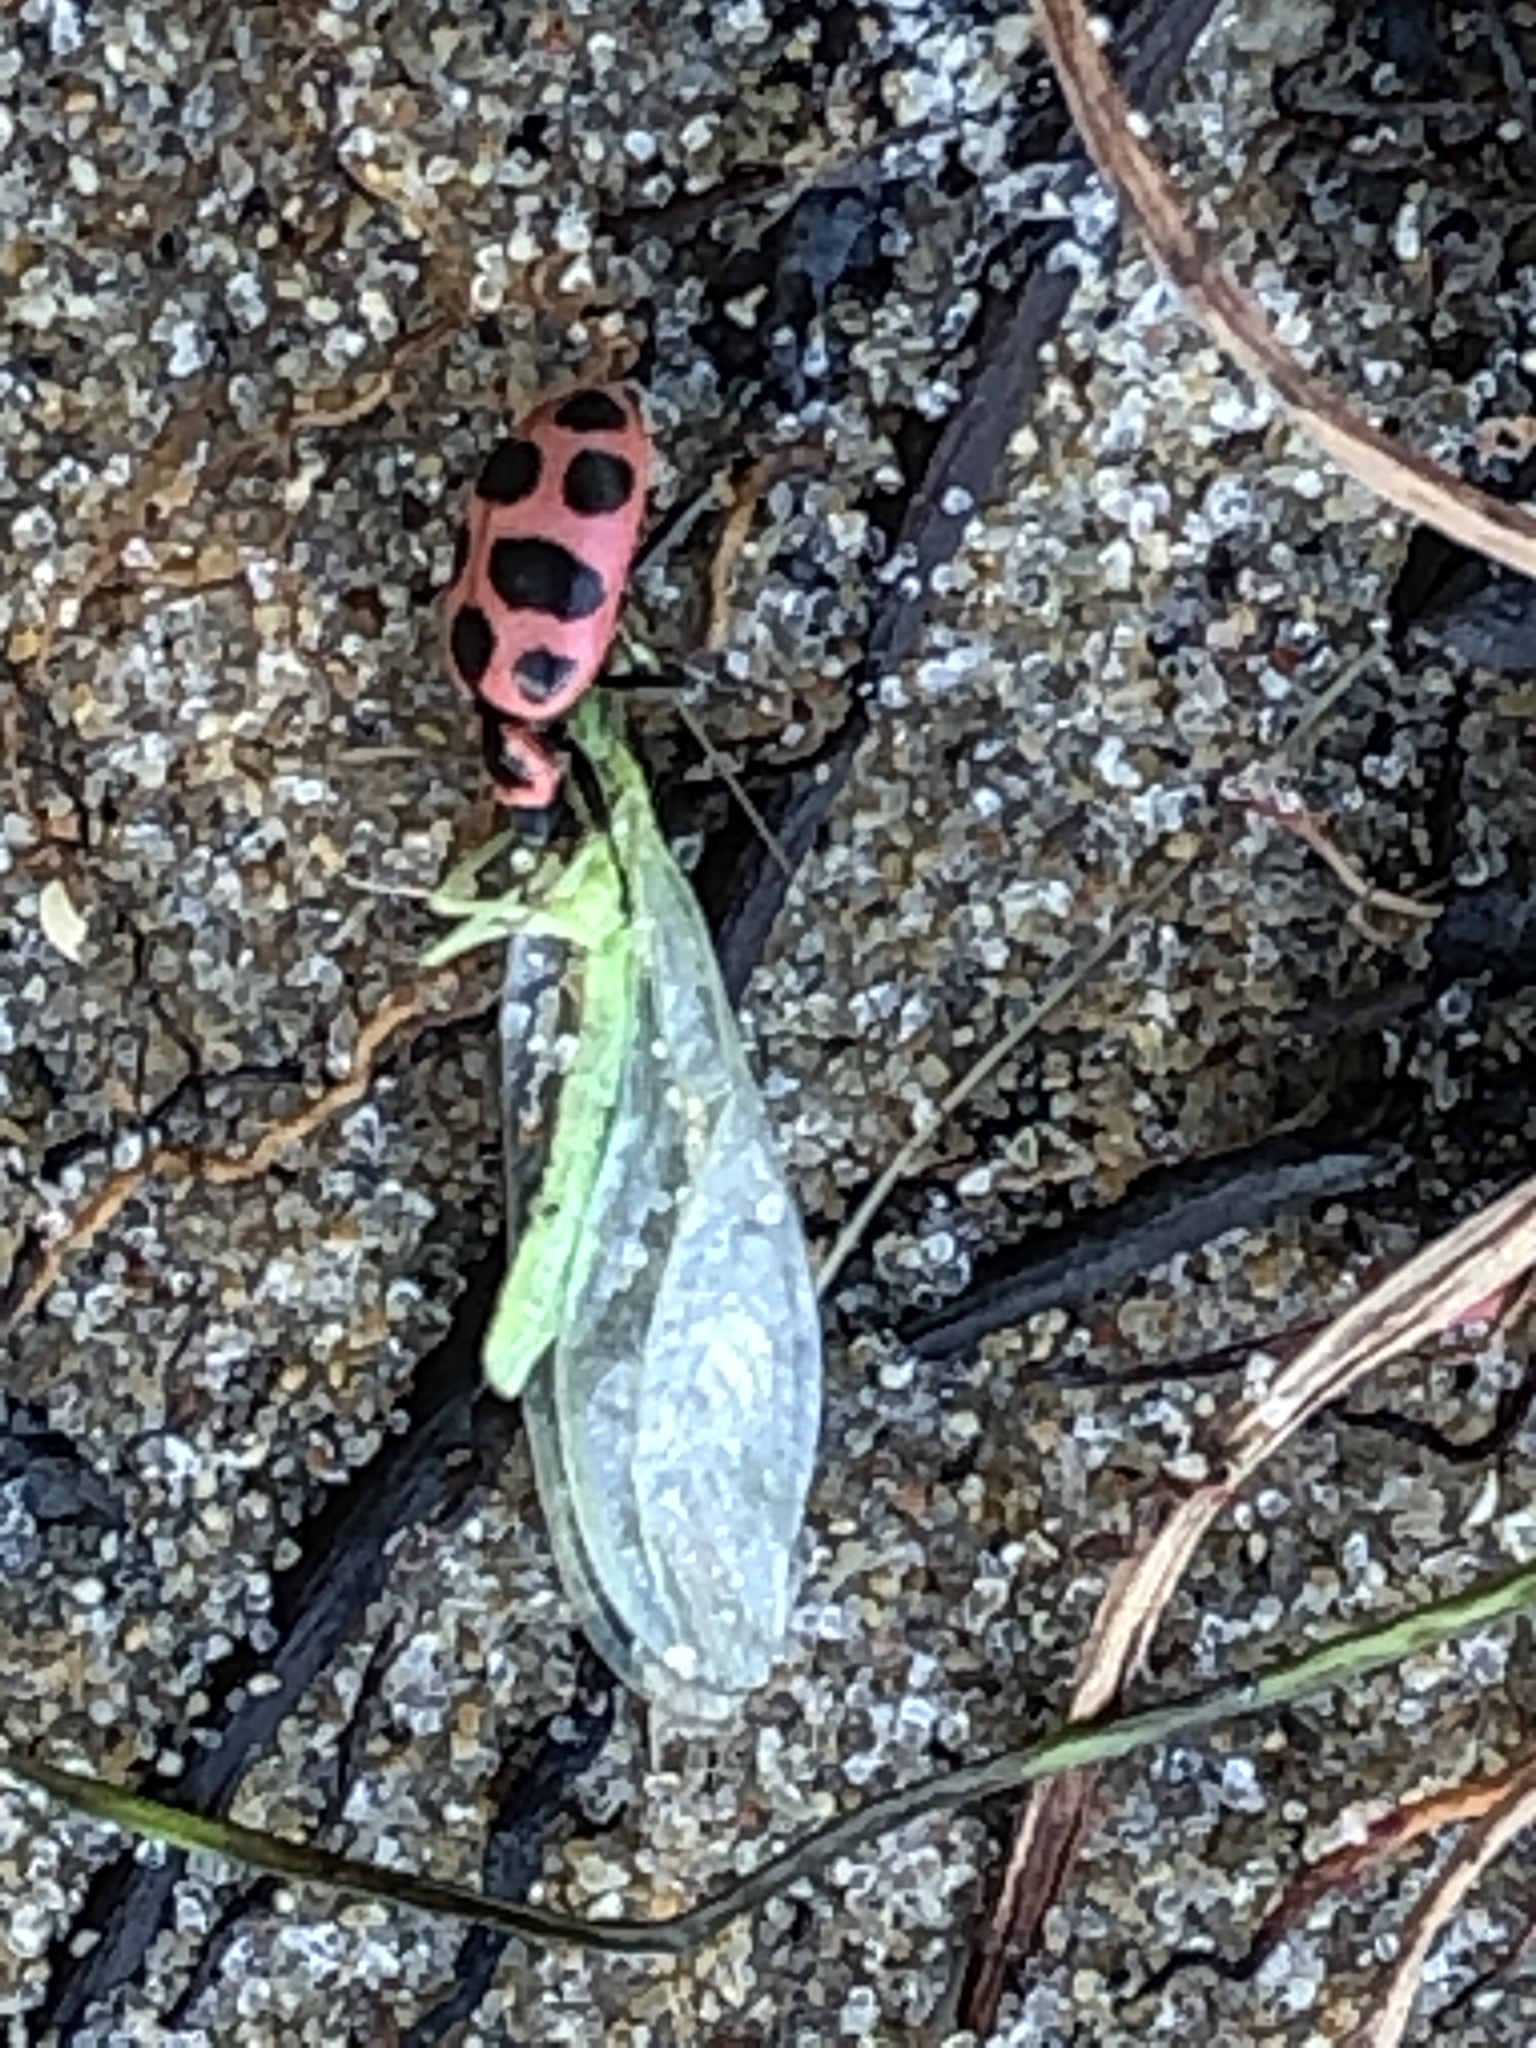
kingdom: Animalia
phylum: Arthropoda
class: Insecta
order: Coleoptera
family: Coccinellidae
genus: Coleomegilla
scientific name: Coleomegilla maculata
